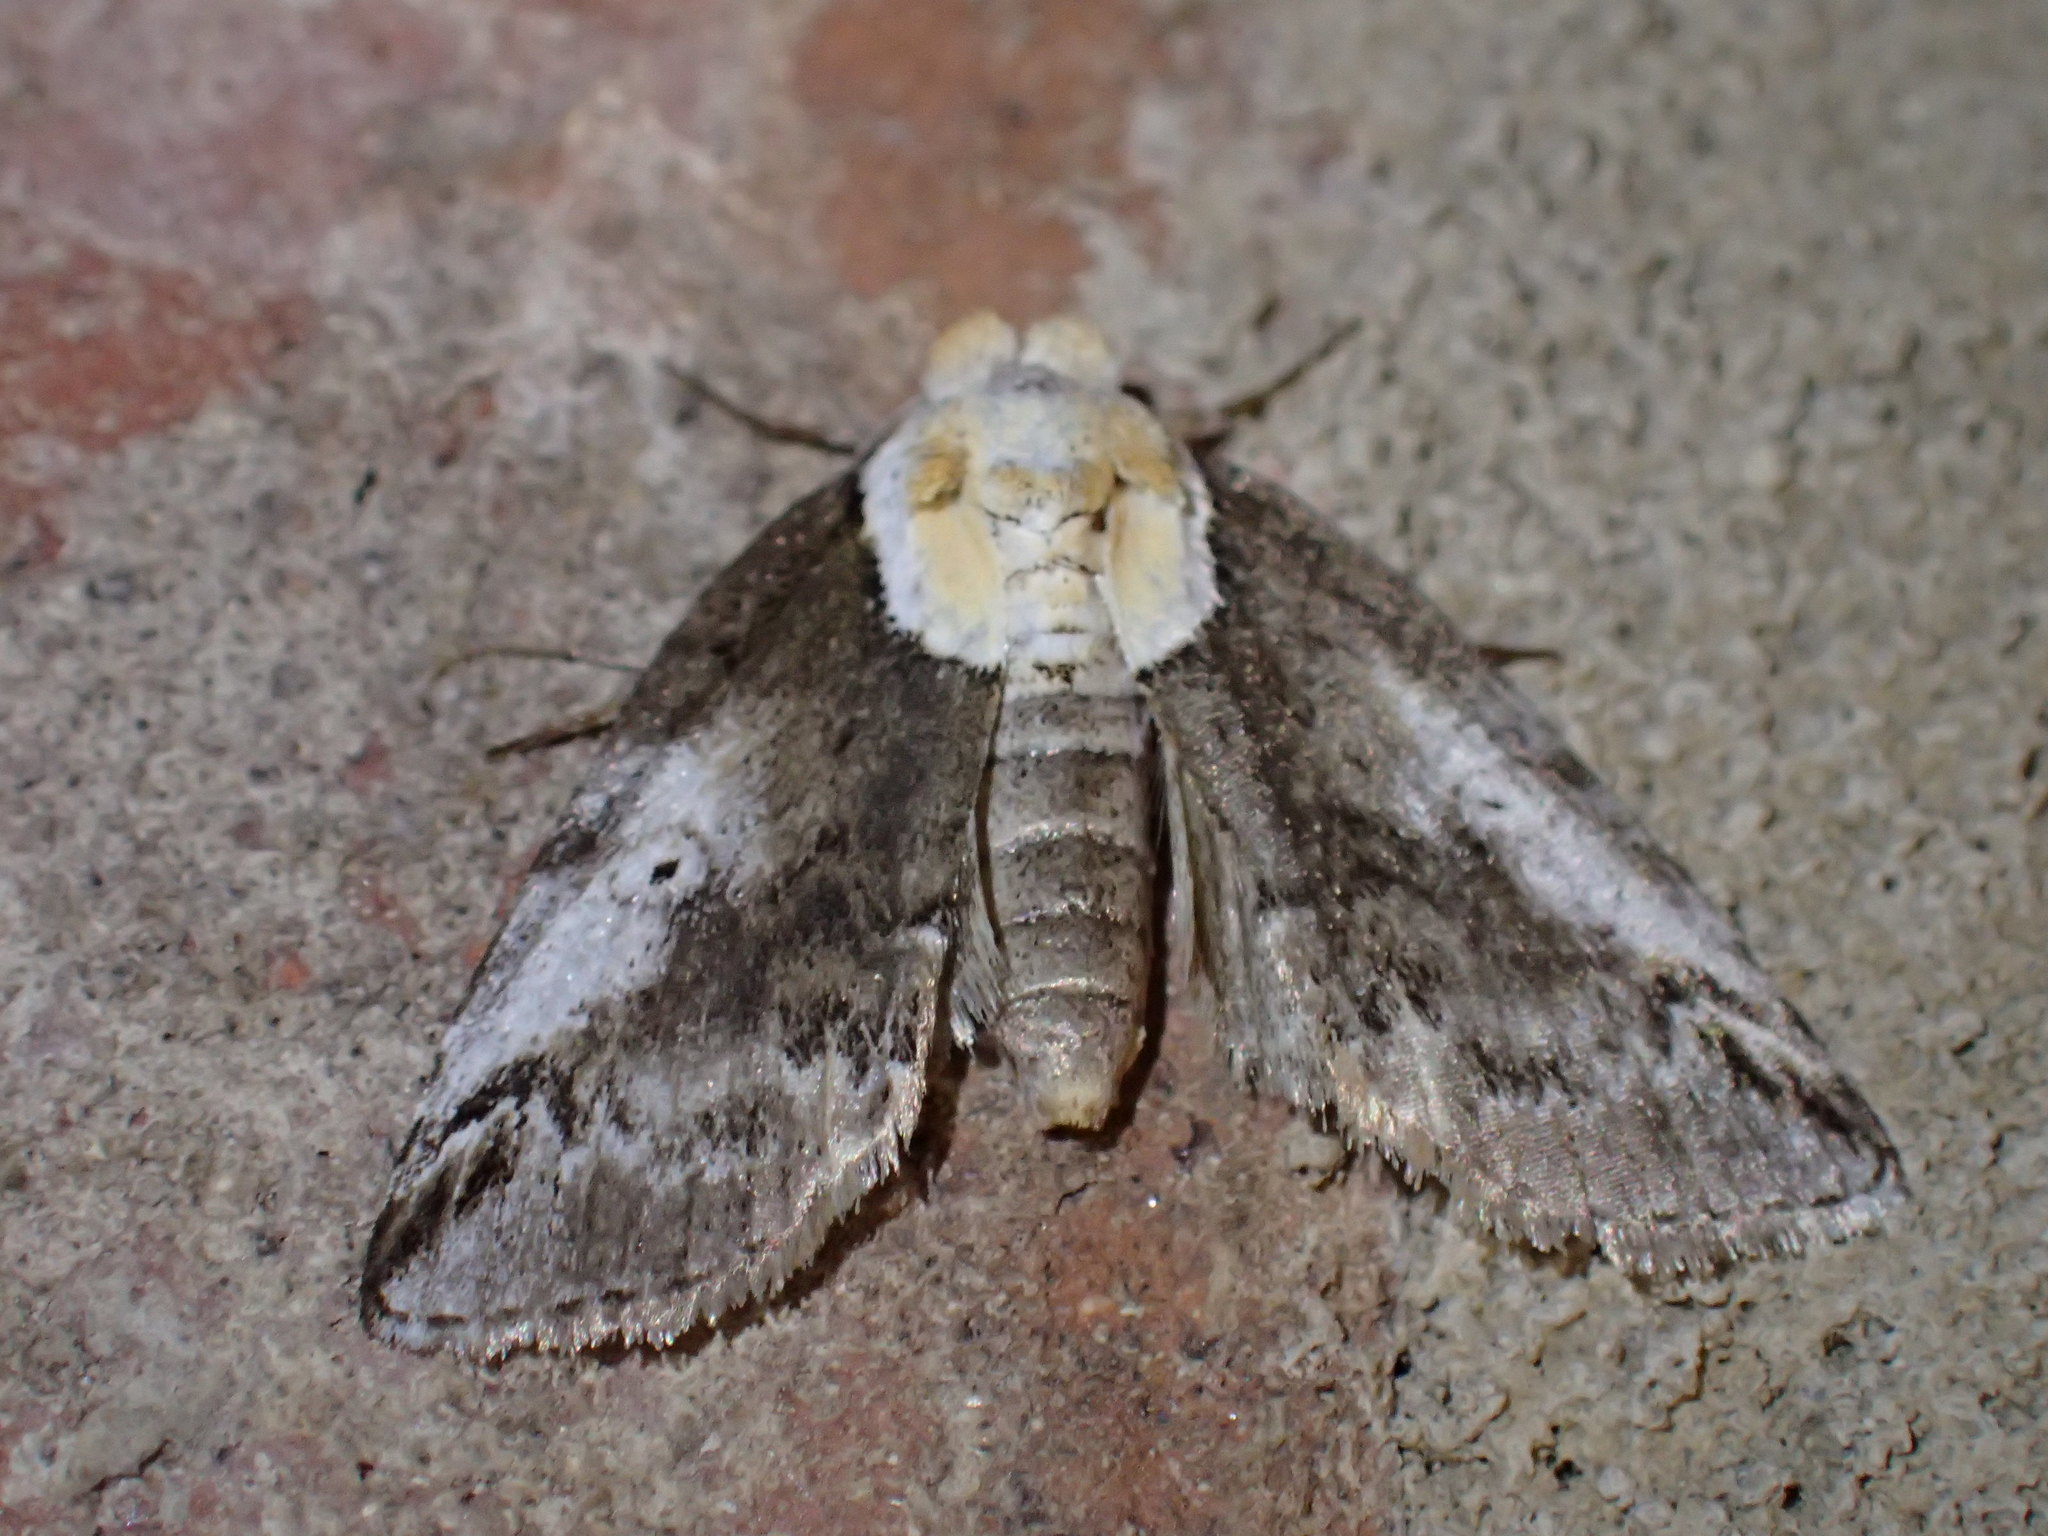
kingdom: Animalia
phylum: Arthropoda
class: Insecta
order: Lepidoptera
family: Nolidae
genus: Baileya
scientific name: Baileya ophthalmica
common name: Eyed baileya moth
